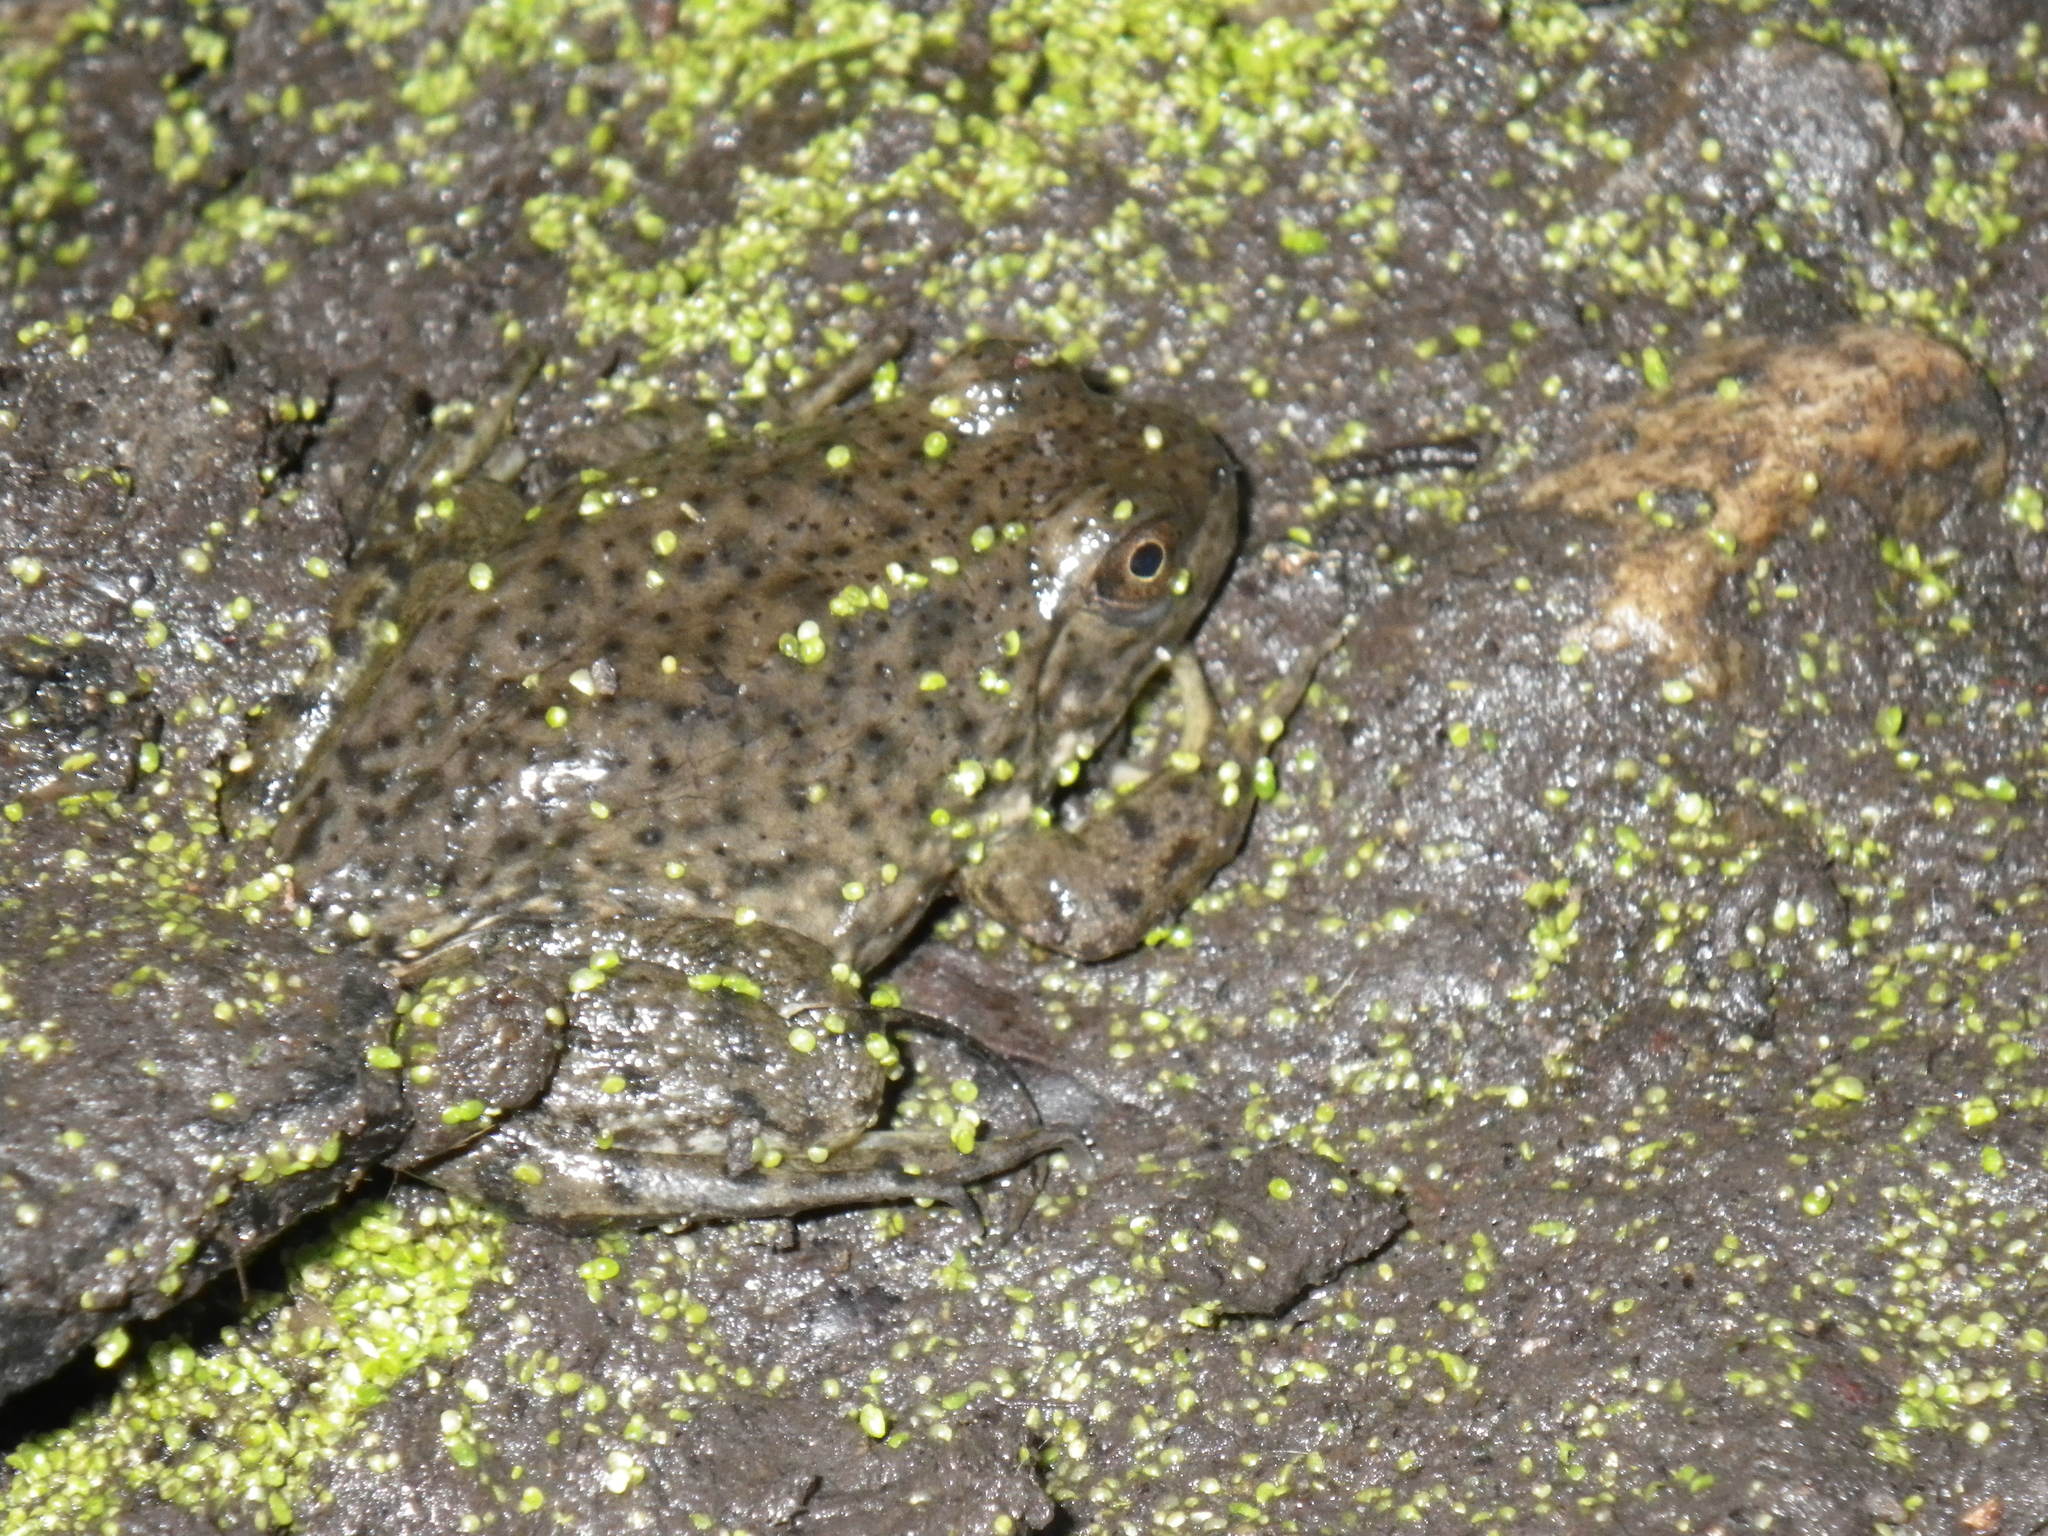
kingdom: Animalia
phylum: Chordata
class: Amphibia
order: Anura
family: Ranidae
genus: Lithobates
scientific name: Lithobates catesbeianus
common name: American bullfrog
